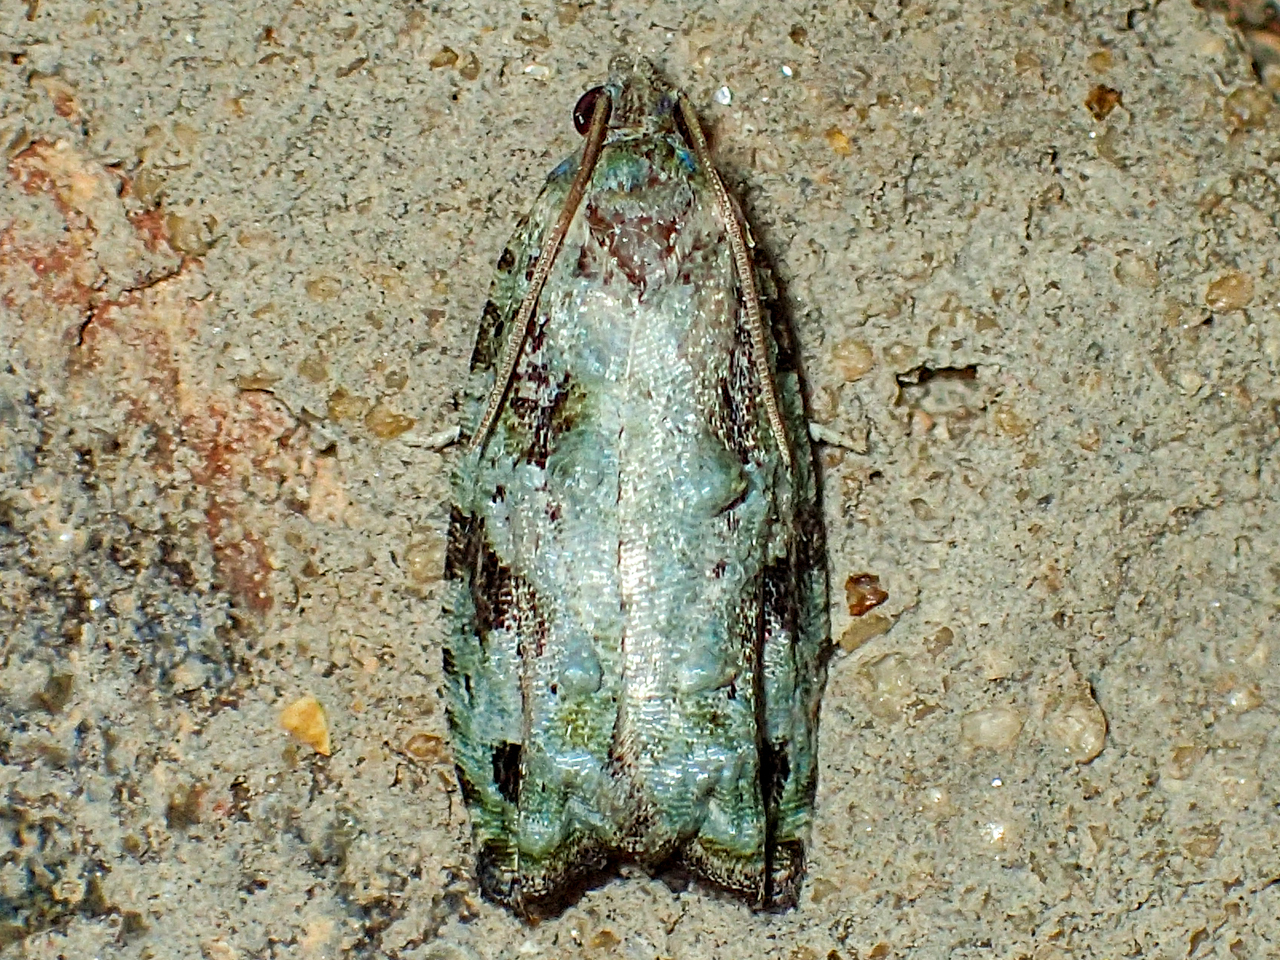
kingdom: Animalia
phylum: Arthropoda
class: Insecta
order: Lepidoptera
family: Tortricidae
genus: Proteoteras
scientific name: Proteoteras moffatiana
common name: Maple bud borer moth
